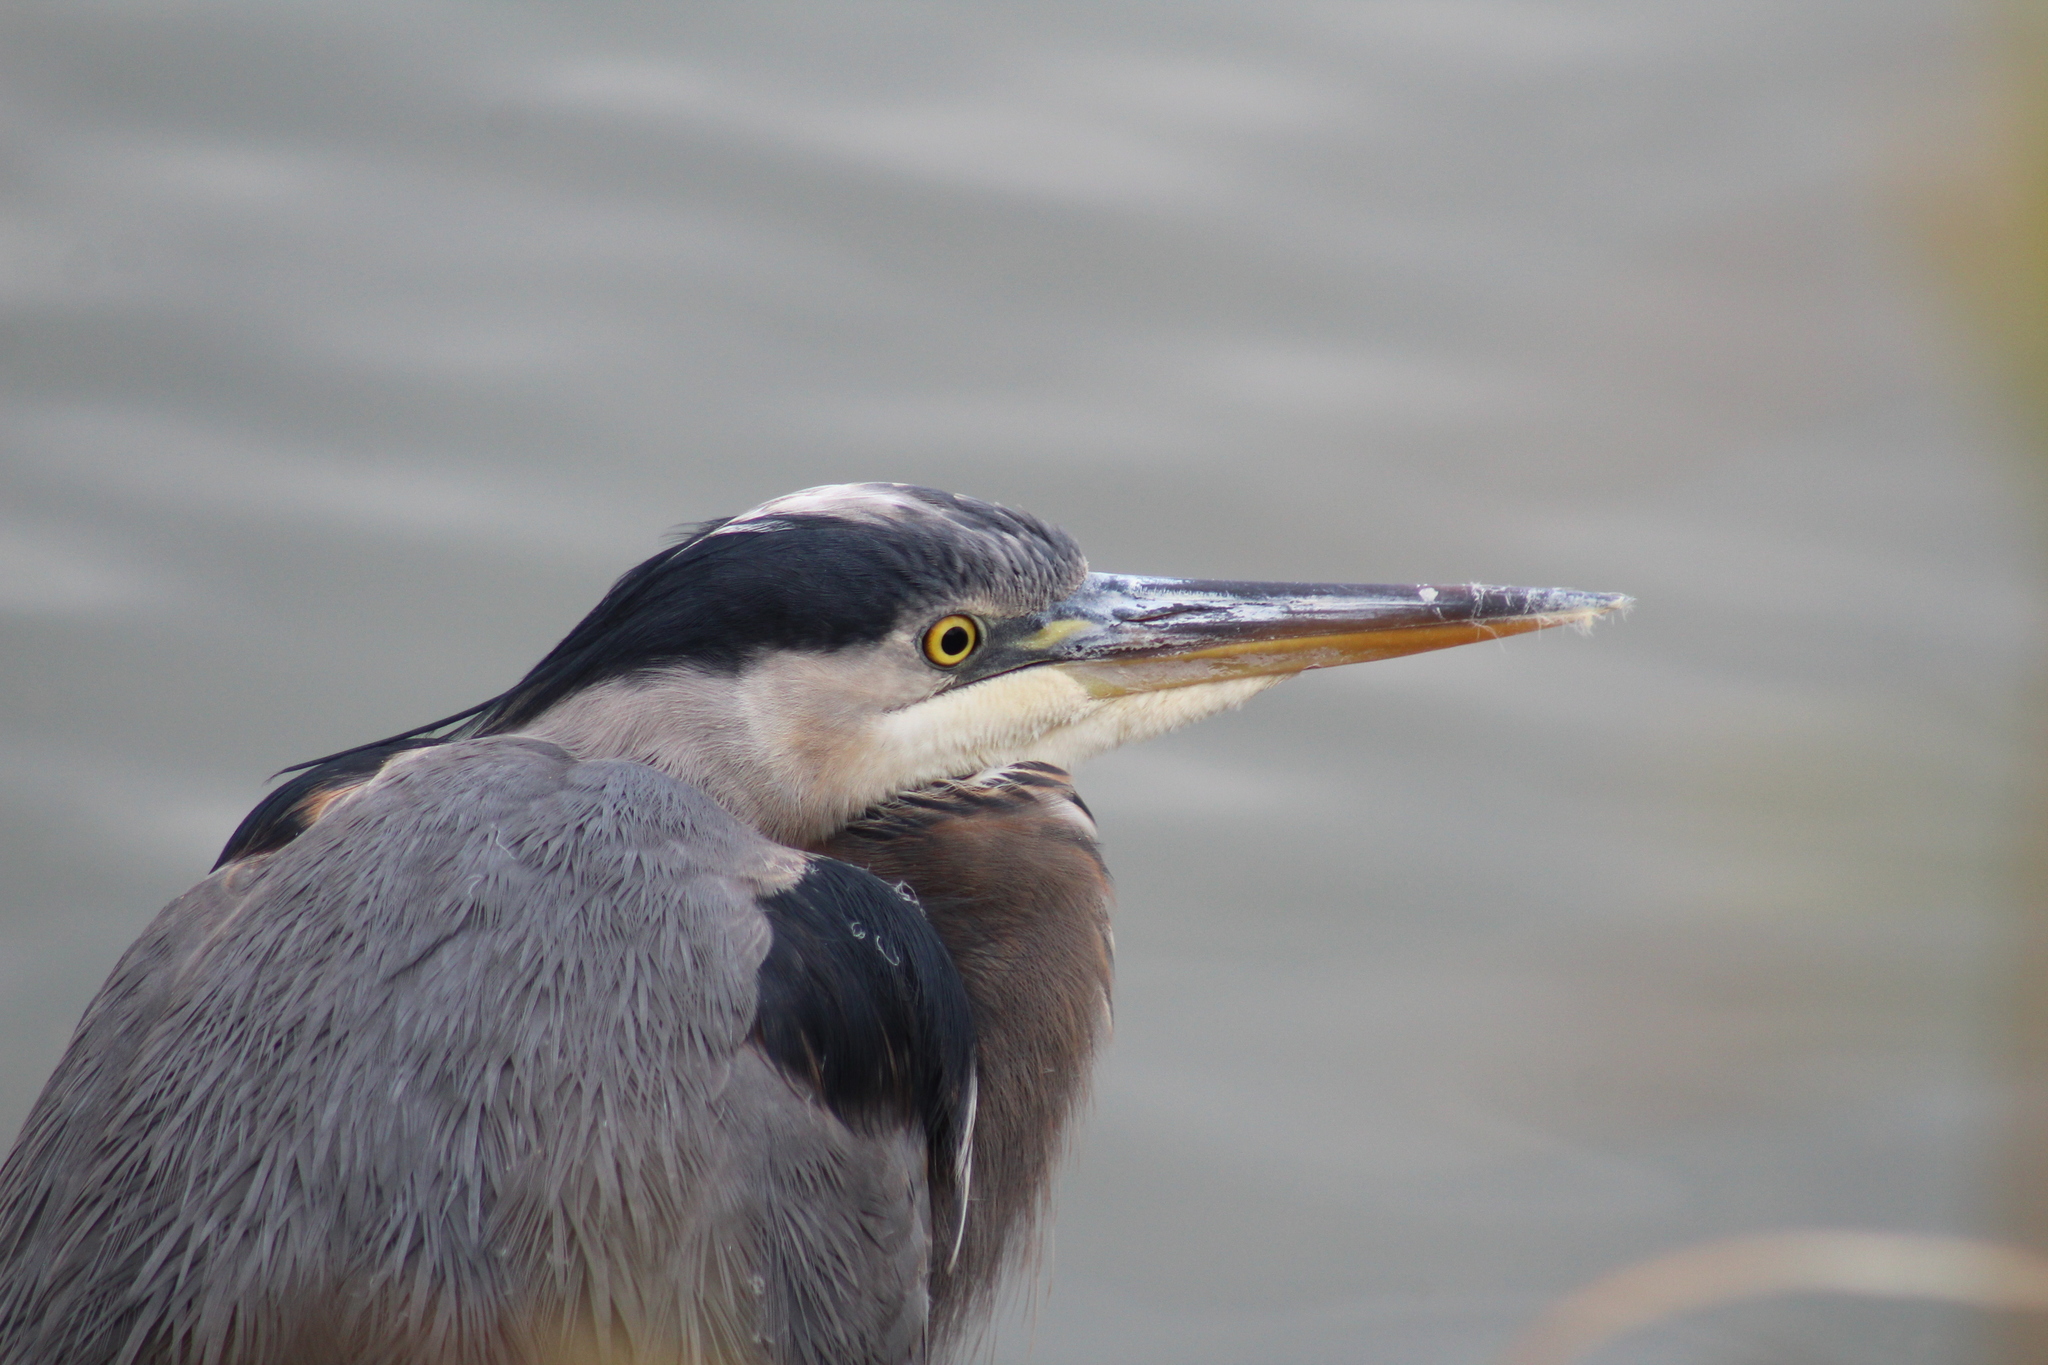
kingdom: Animalia
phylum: Chordata
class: Aves
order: Pelecaniformes
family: Ardeidae
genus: Ardea
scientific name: Ardea herodias
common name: Great blue heron
